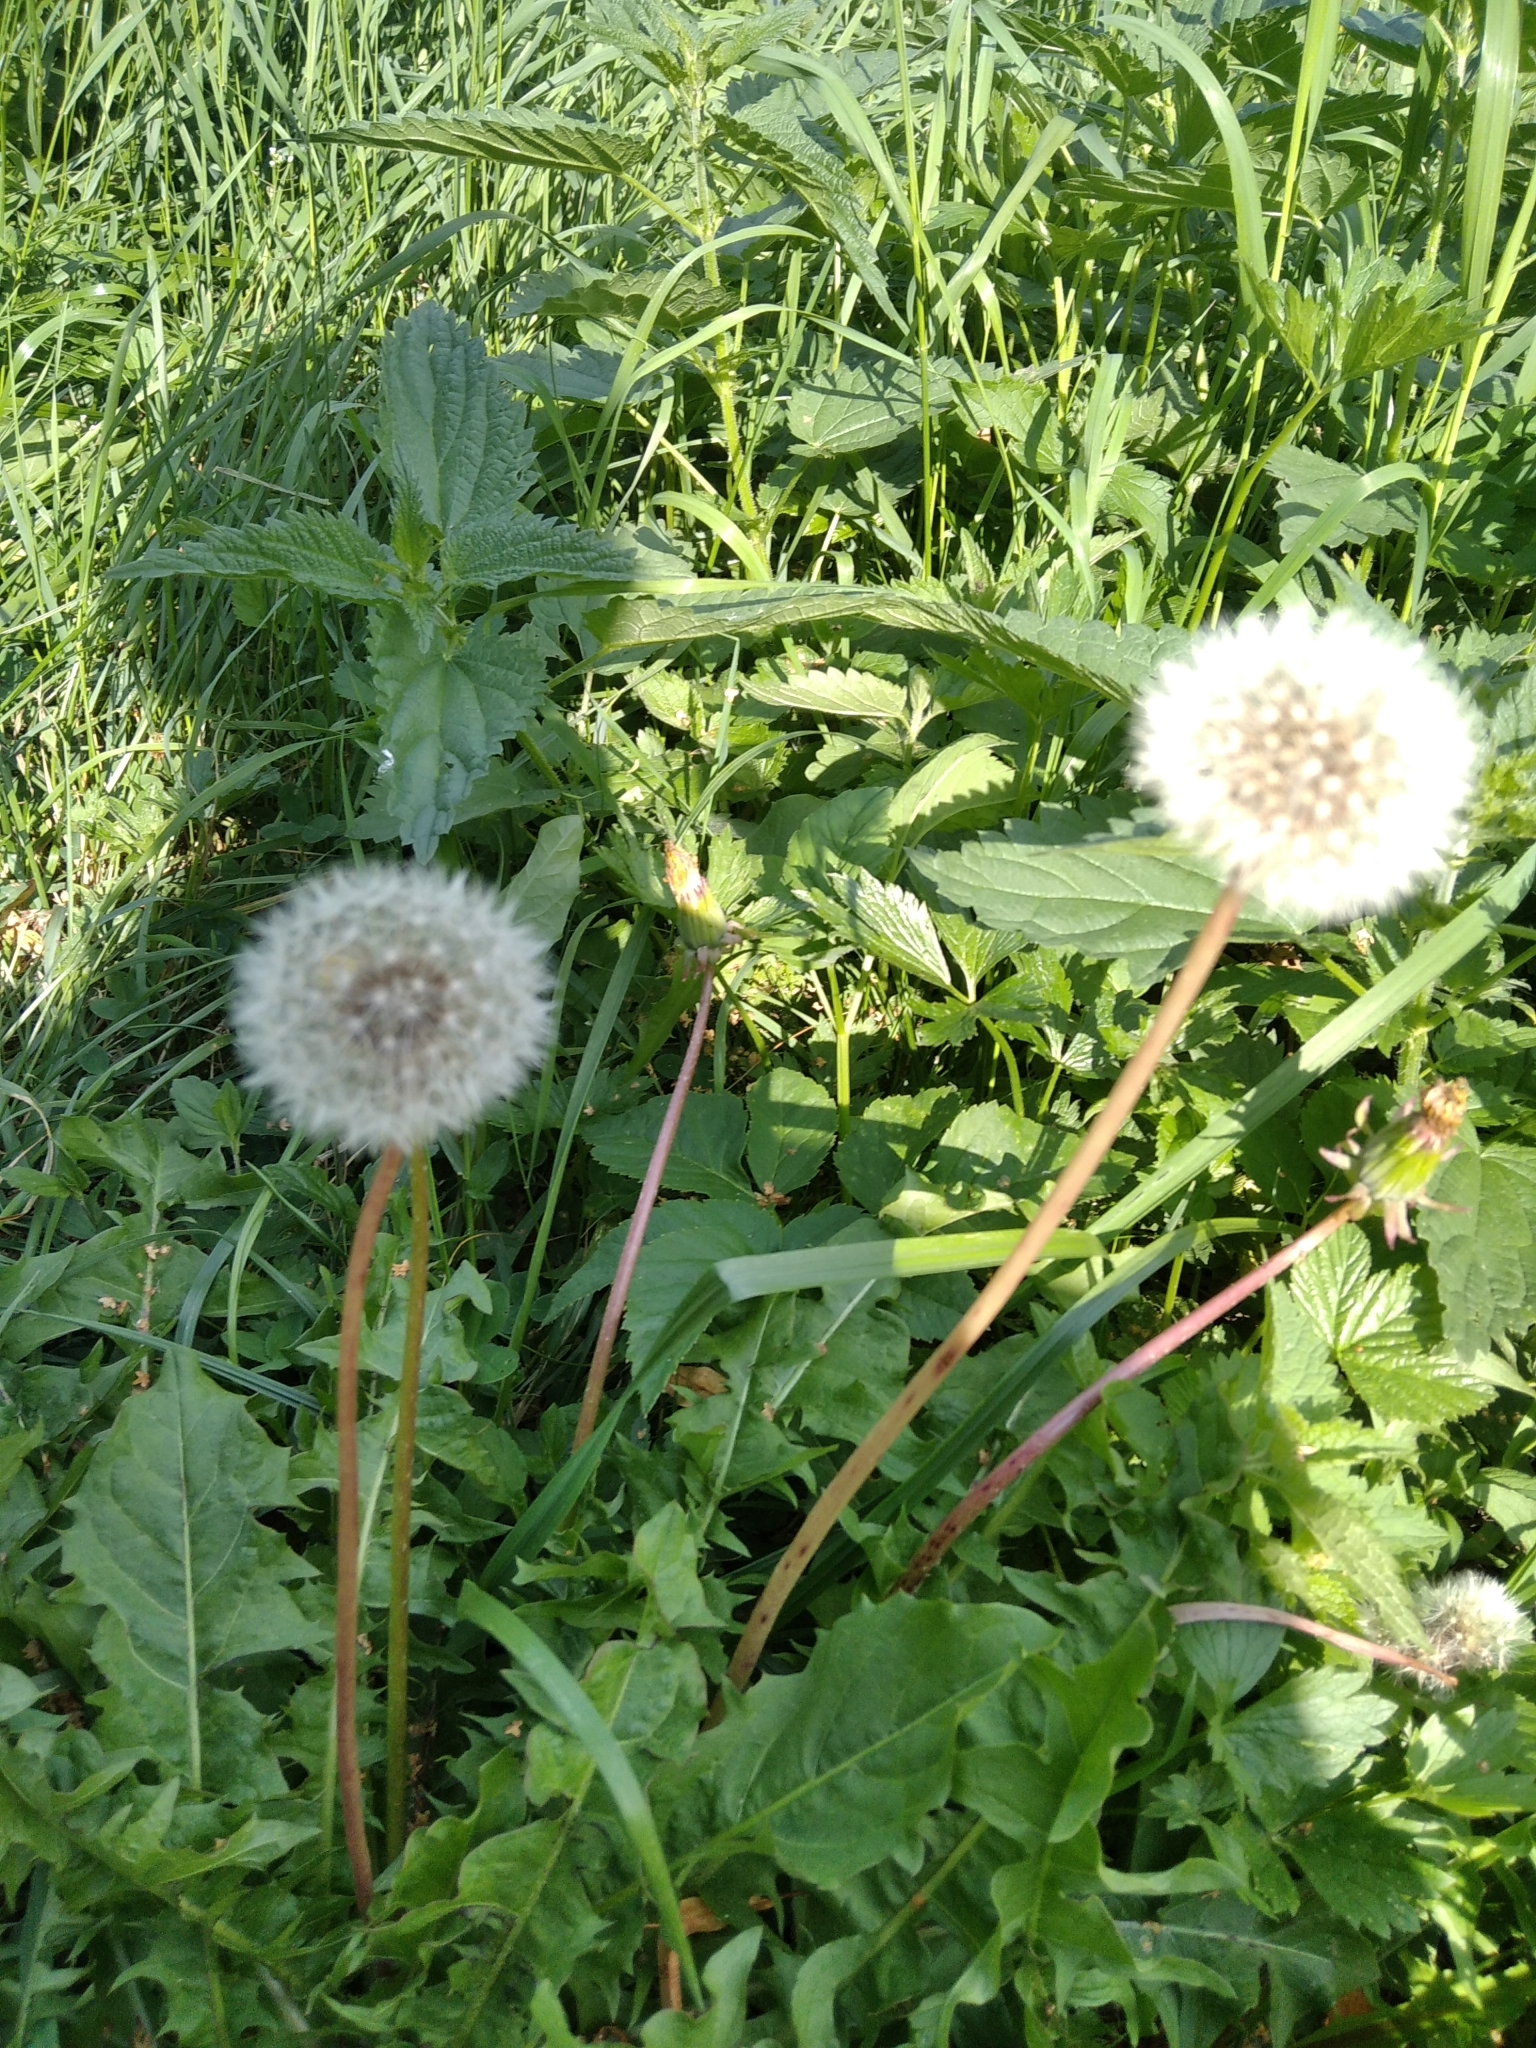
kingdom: Plantae
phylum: Tracheophyta
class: Magnoliopsida
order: Asterales
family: Asteraceae
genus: Taraxacum
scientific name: Taraxacum officinale
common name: Common dandelion
